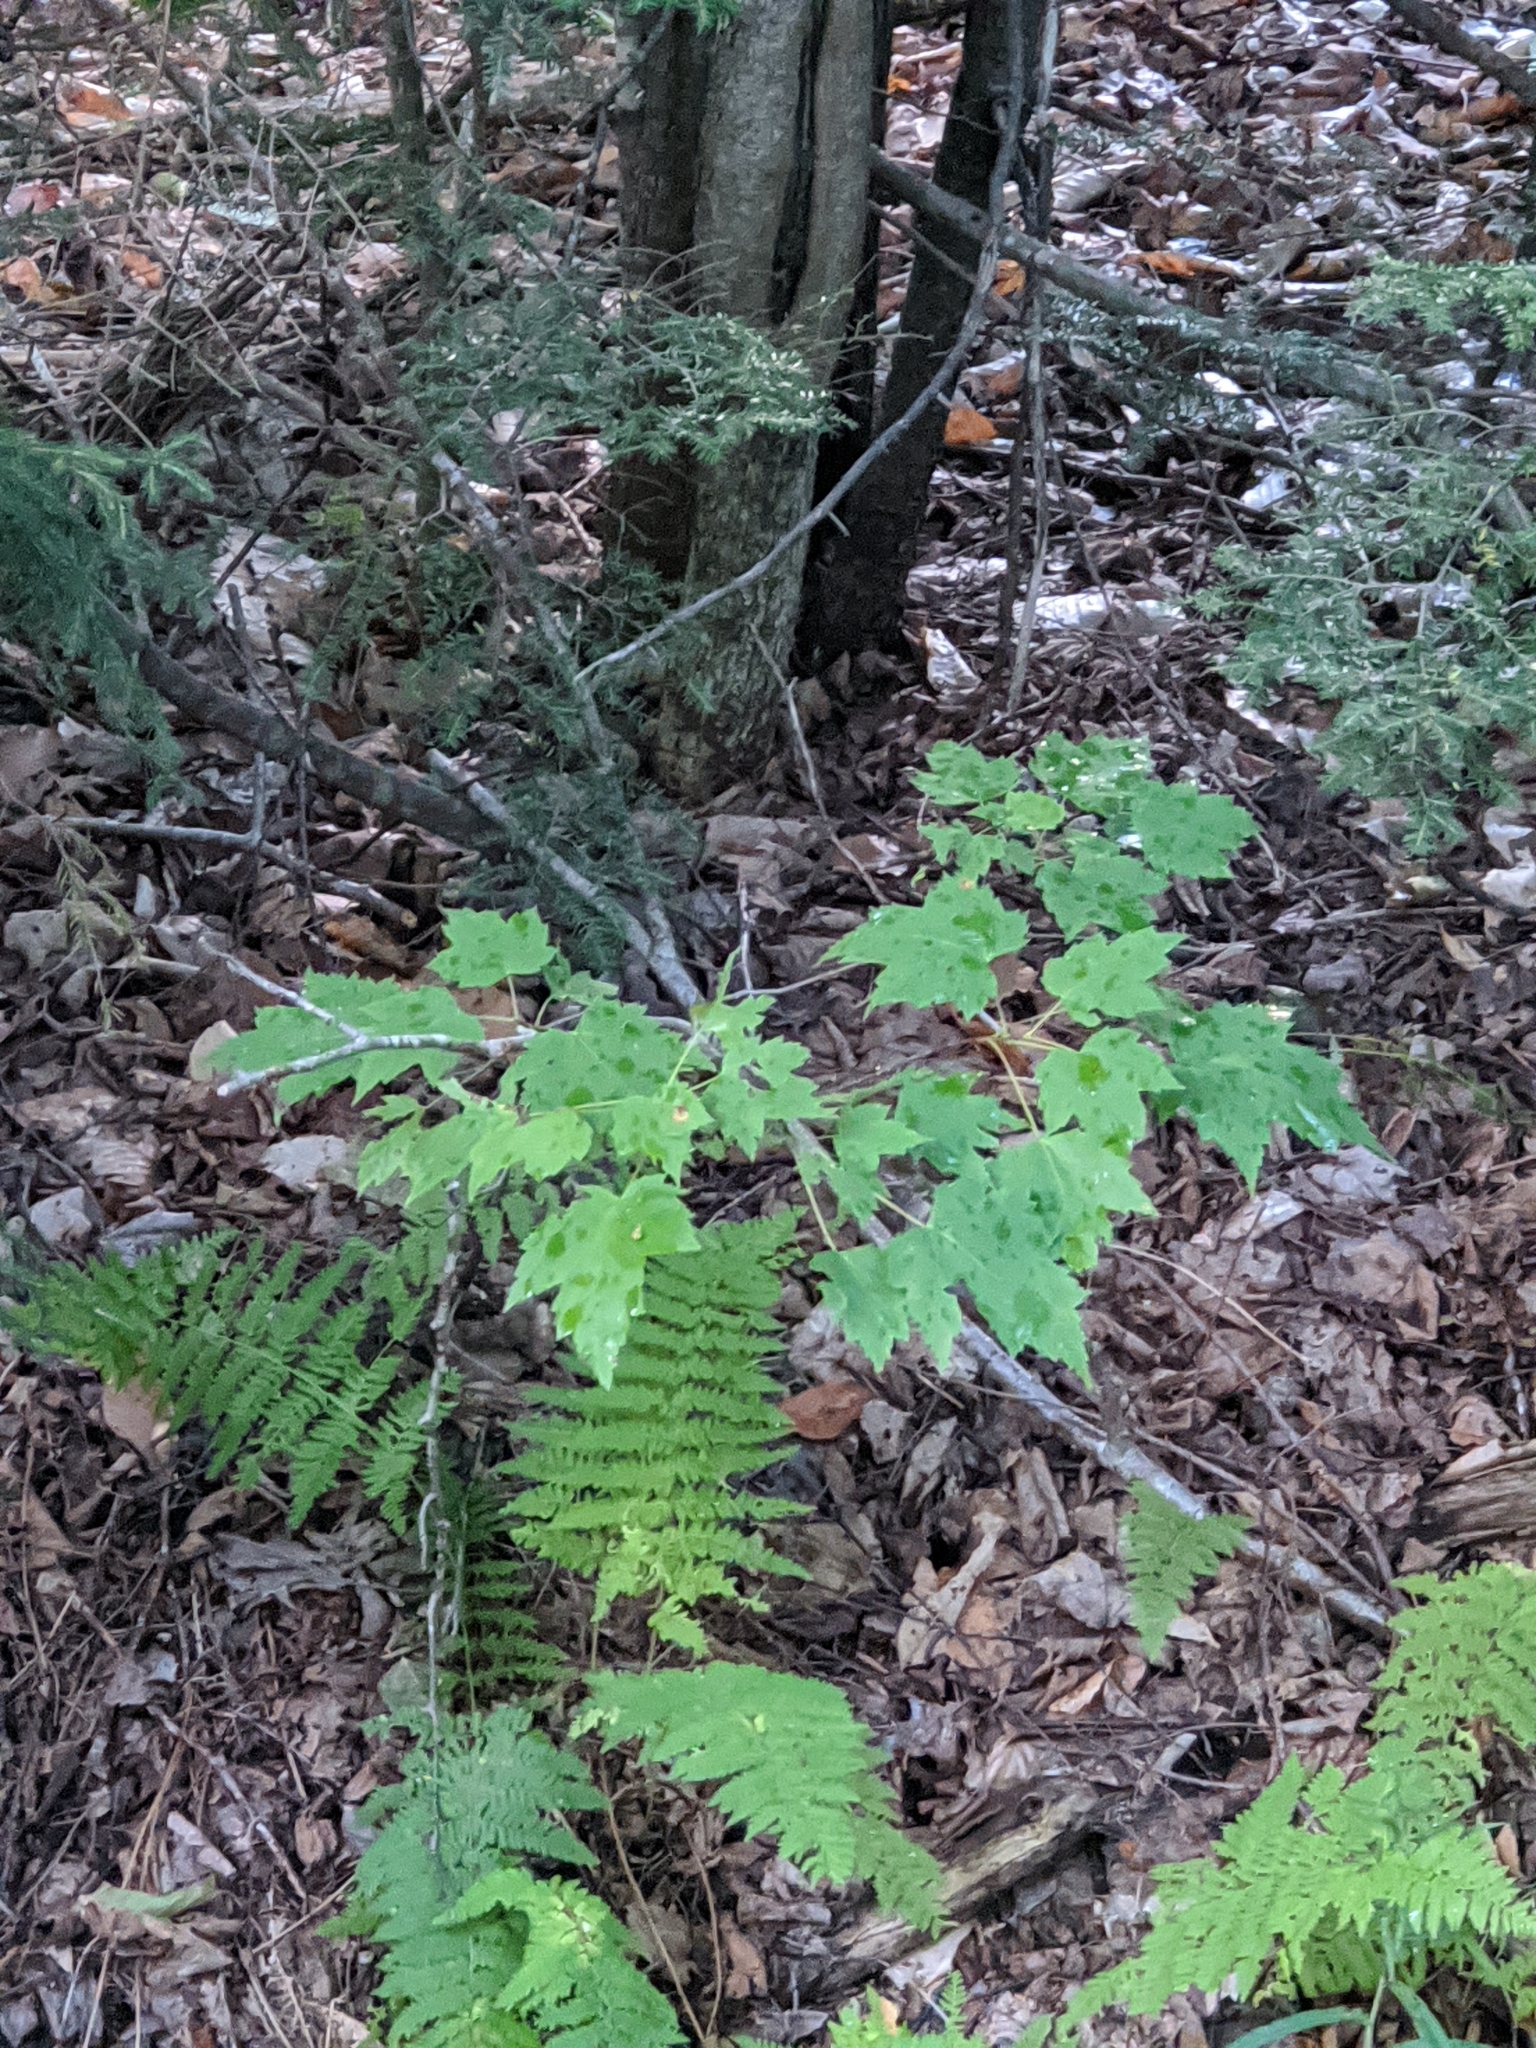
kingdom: Plantae
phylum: Tracheophyta
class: Magnoliopsida
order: Sapindales
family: Sapindaceae
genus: Acer
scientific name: Acer rubrum
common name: Red maple
